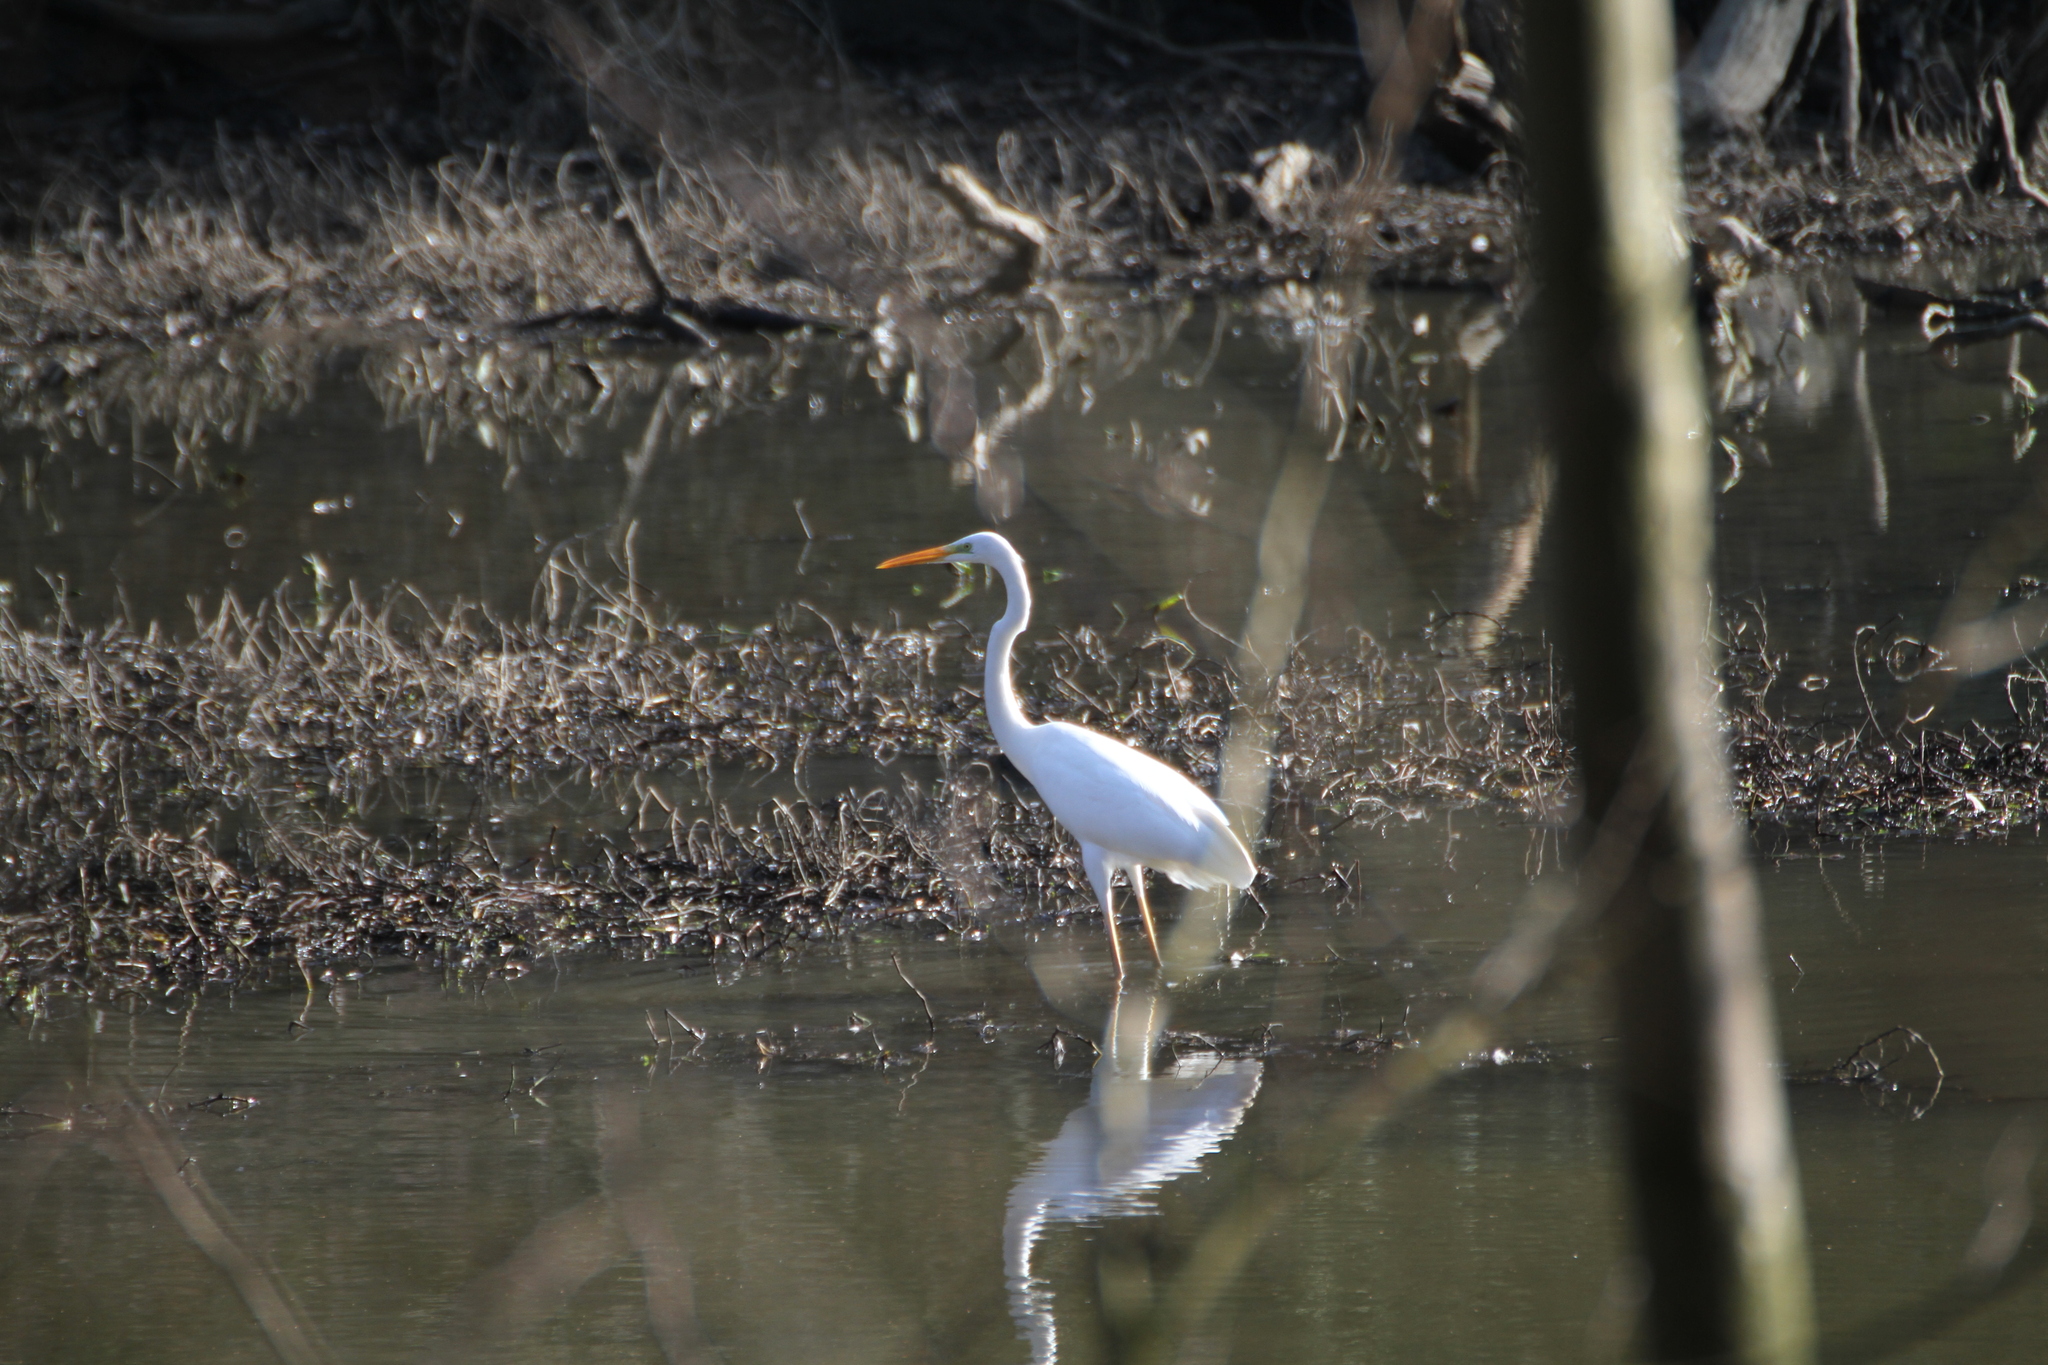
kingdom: Animalia
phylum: Chordata
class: Aves
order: Pelecaniformes
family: Ardeidae
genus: Ardea
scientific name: Ardea alba
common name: Great egret
